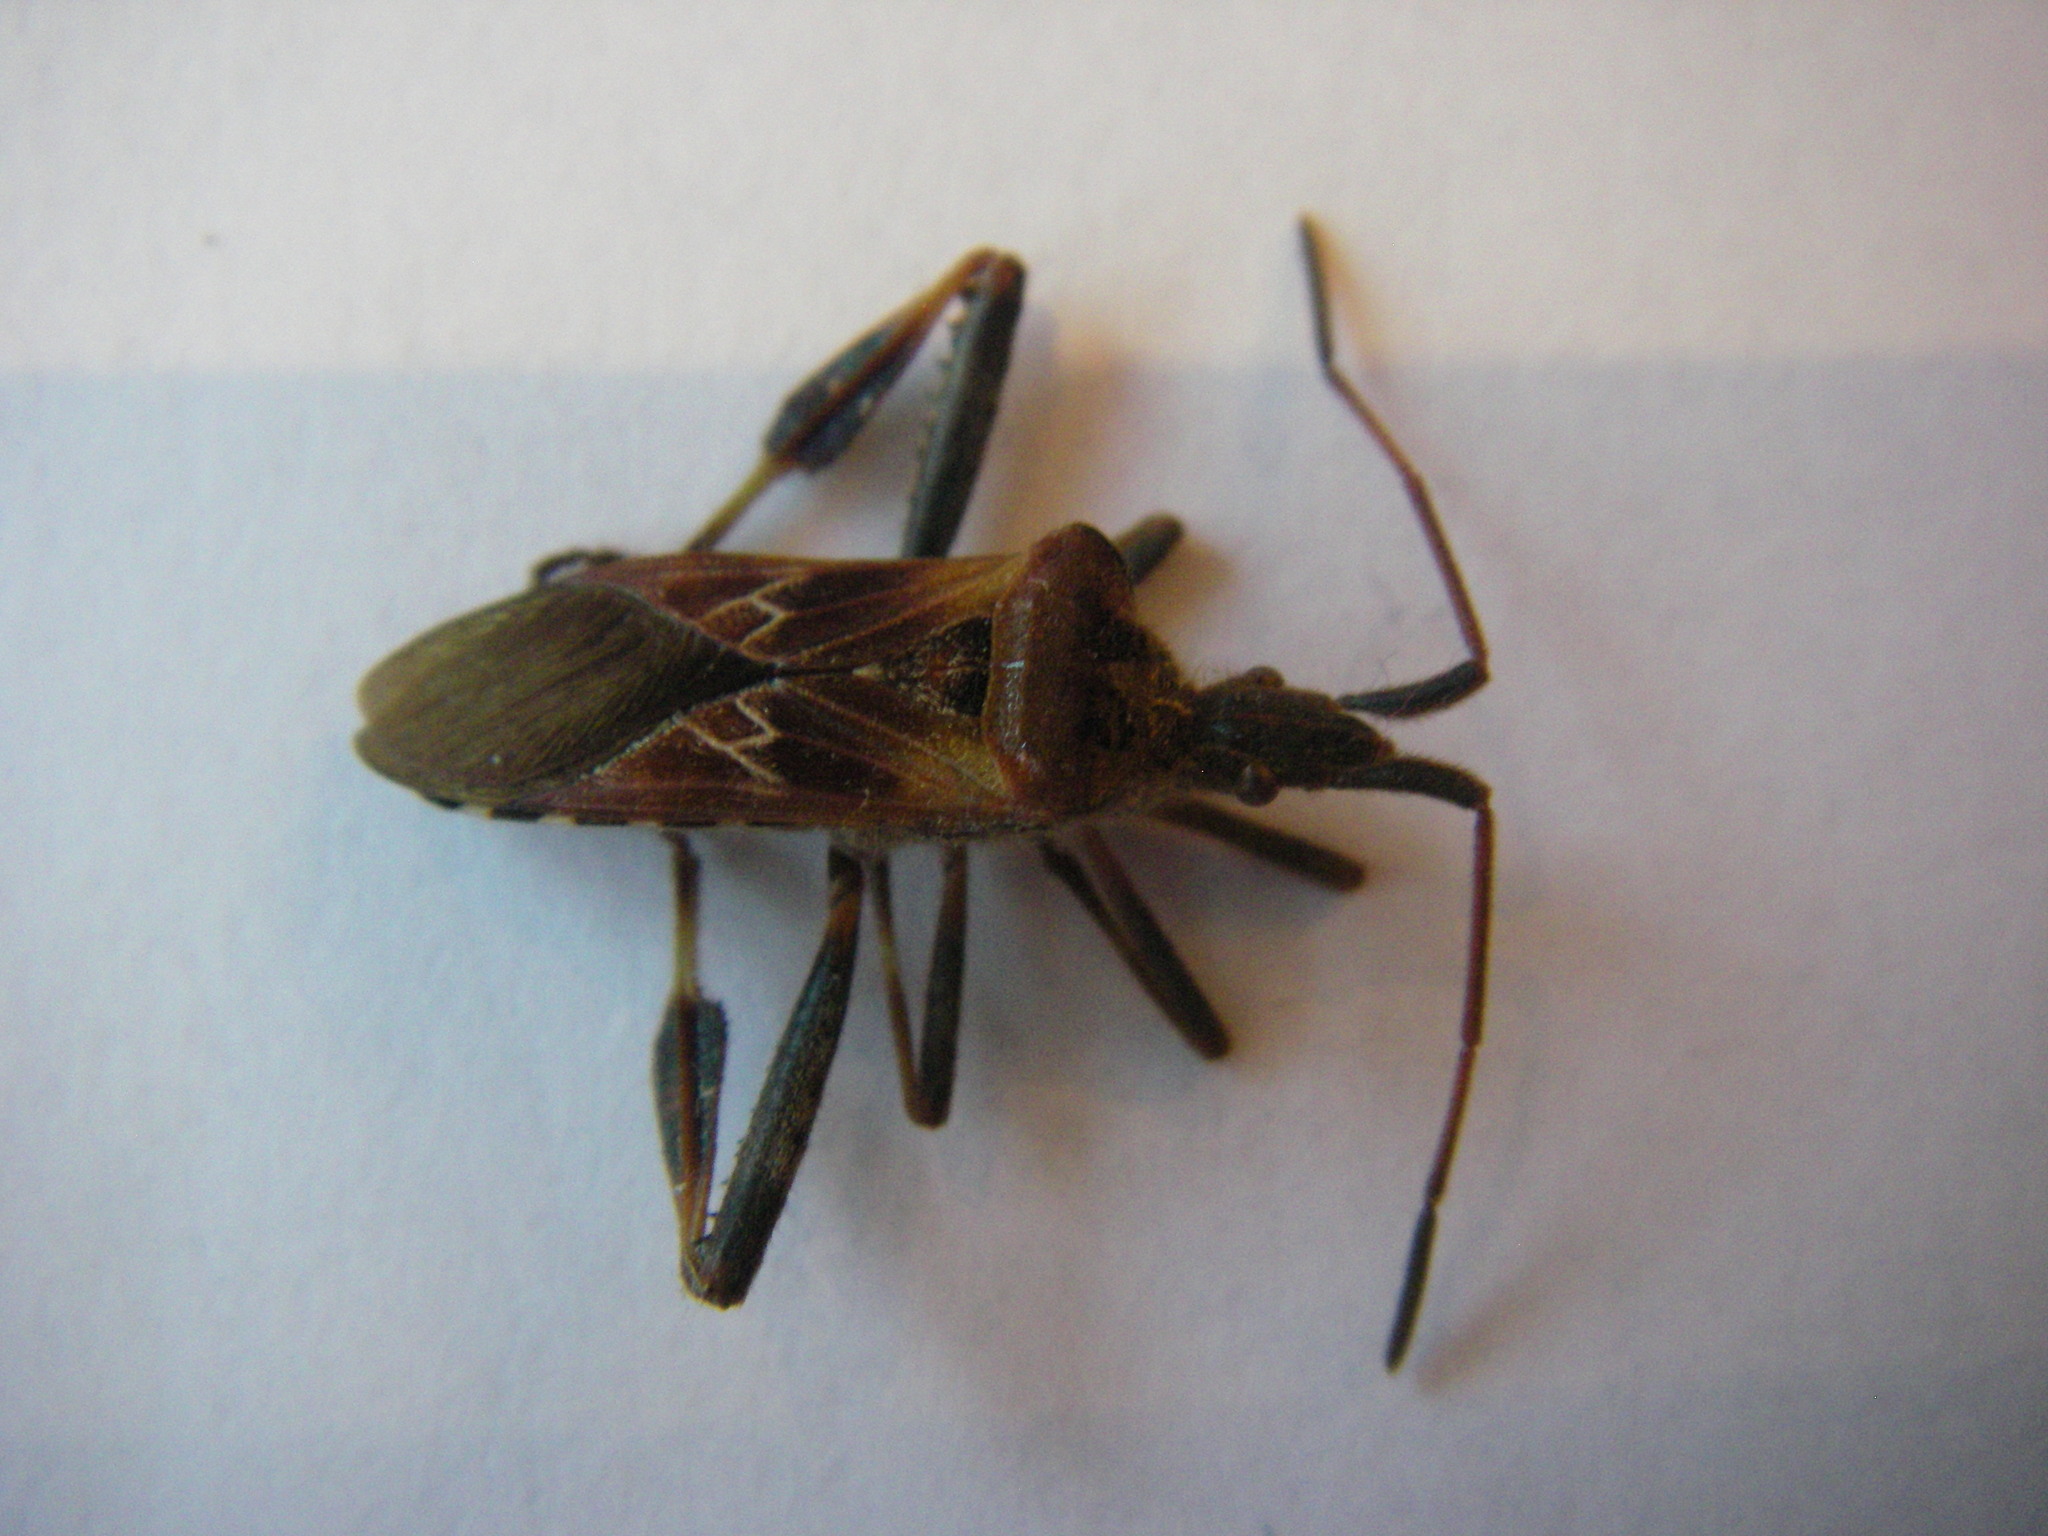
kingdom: Animalia
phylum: Arthropoda
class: Insecta
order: Hemiptera
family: Coreidae
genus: Leptoglossus
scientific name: Leptoglossus occidentalis
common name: Western conifer-seed bug
